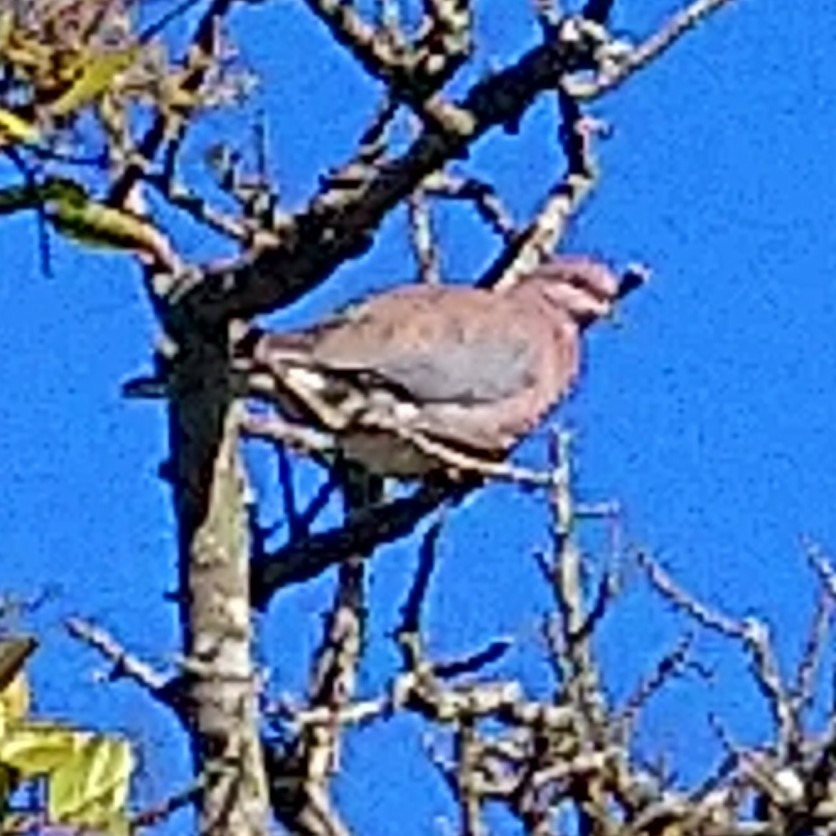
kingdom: Animalia
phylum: Chordata
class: Aves
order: Columbiformes
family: Columbidae
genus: Spilopelia
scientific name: Spilopelia senegalensis
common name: Laughing dove
